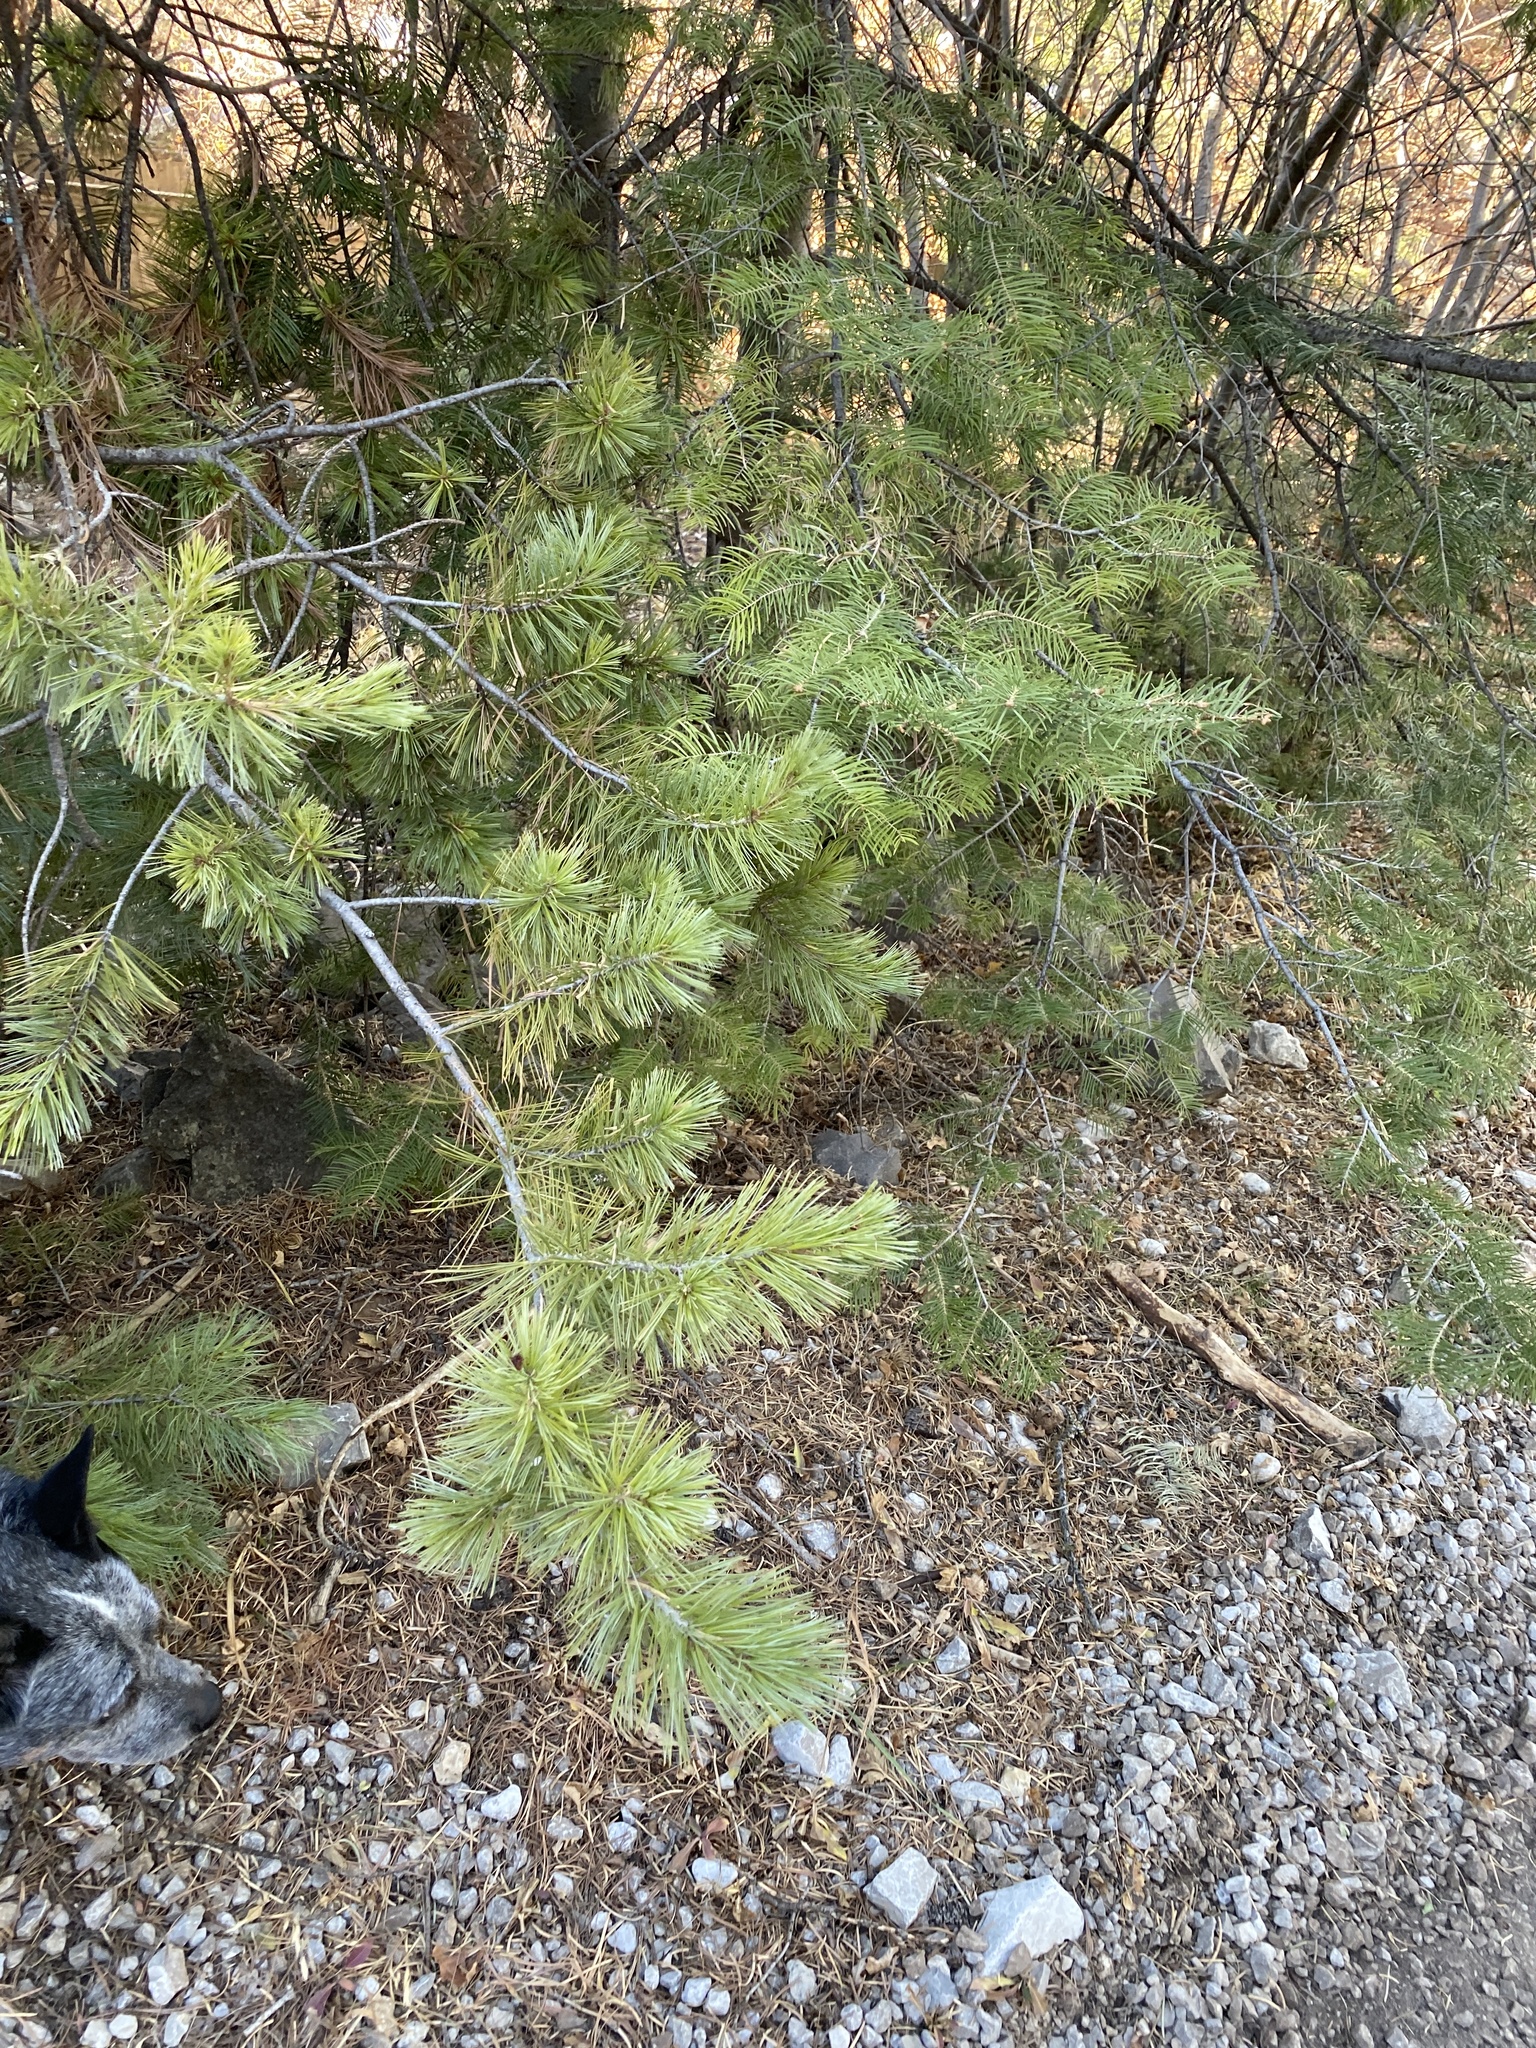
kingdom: Plantae
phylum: Tracheophyta
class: Pinopsida
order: Pinales
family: Pinaceae
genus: Pinus
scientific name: Pinus strobiformis
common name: Southwestern white pine
